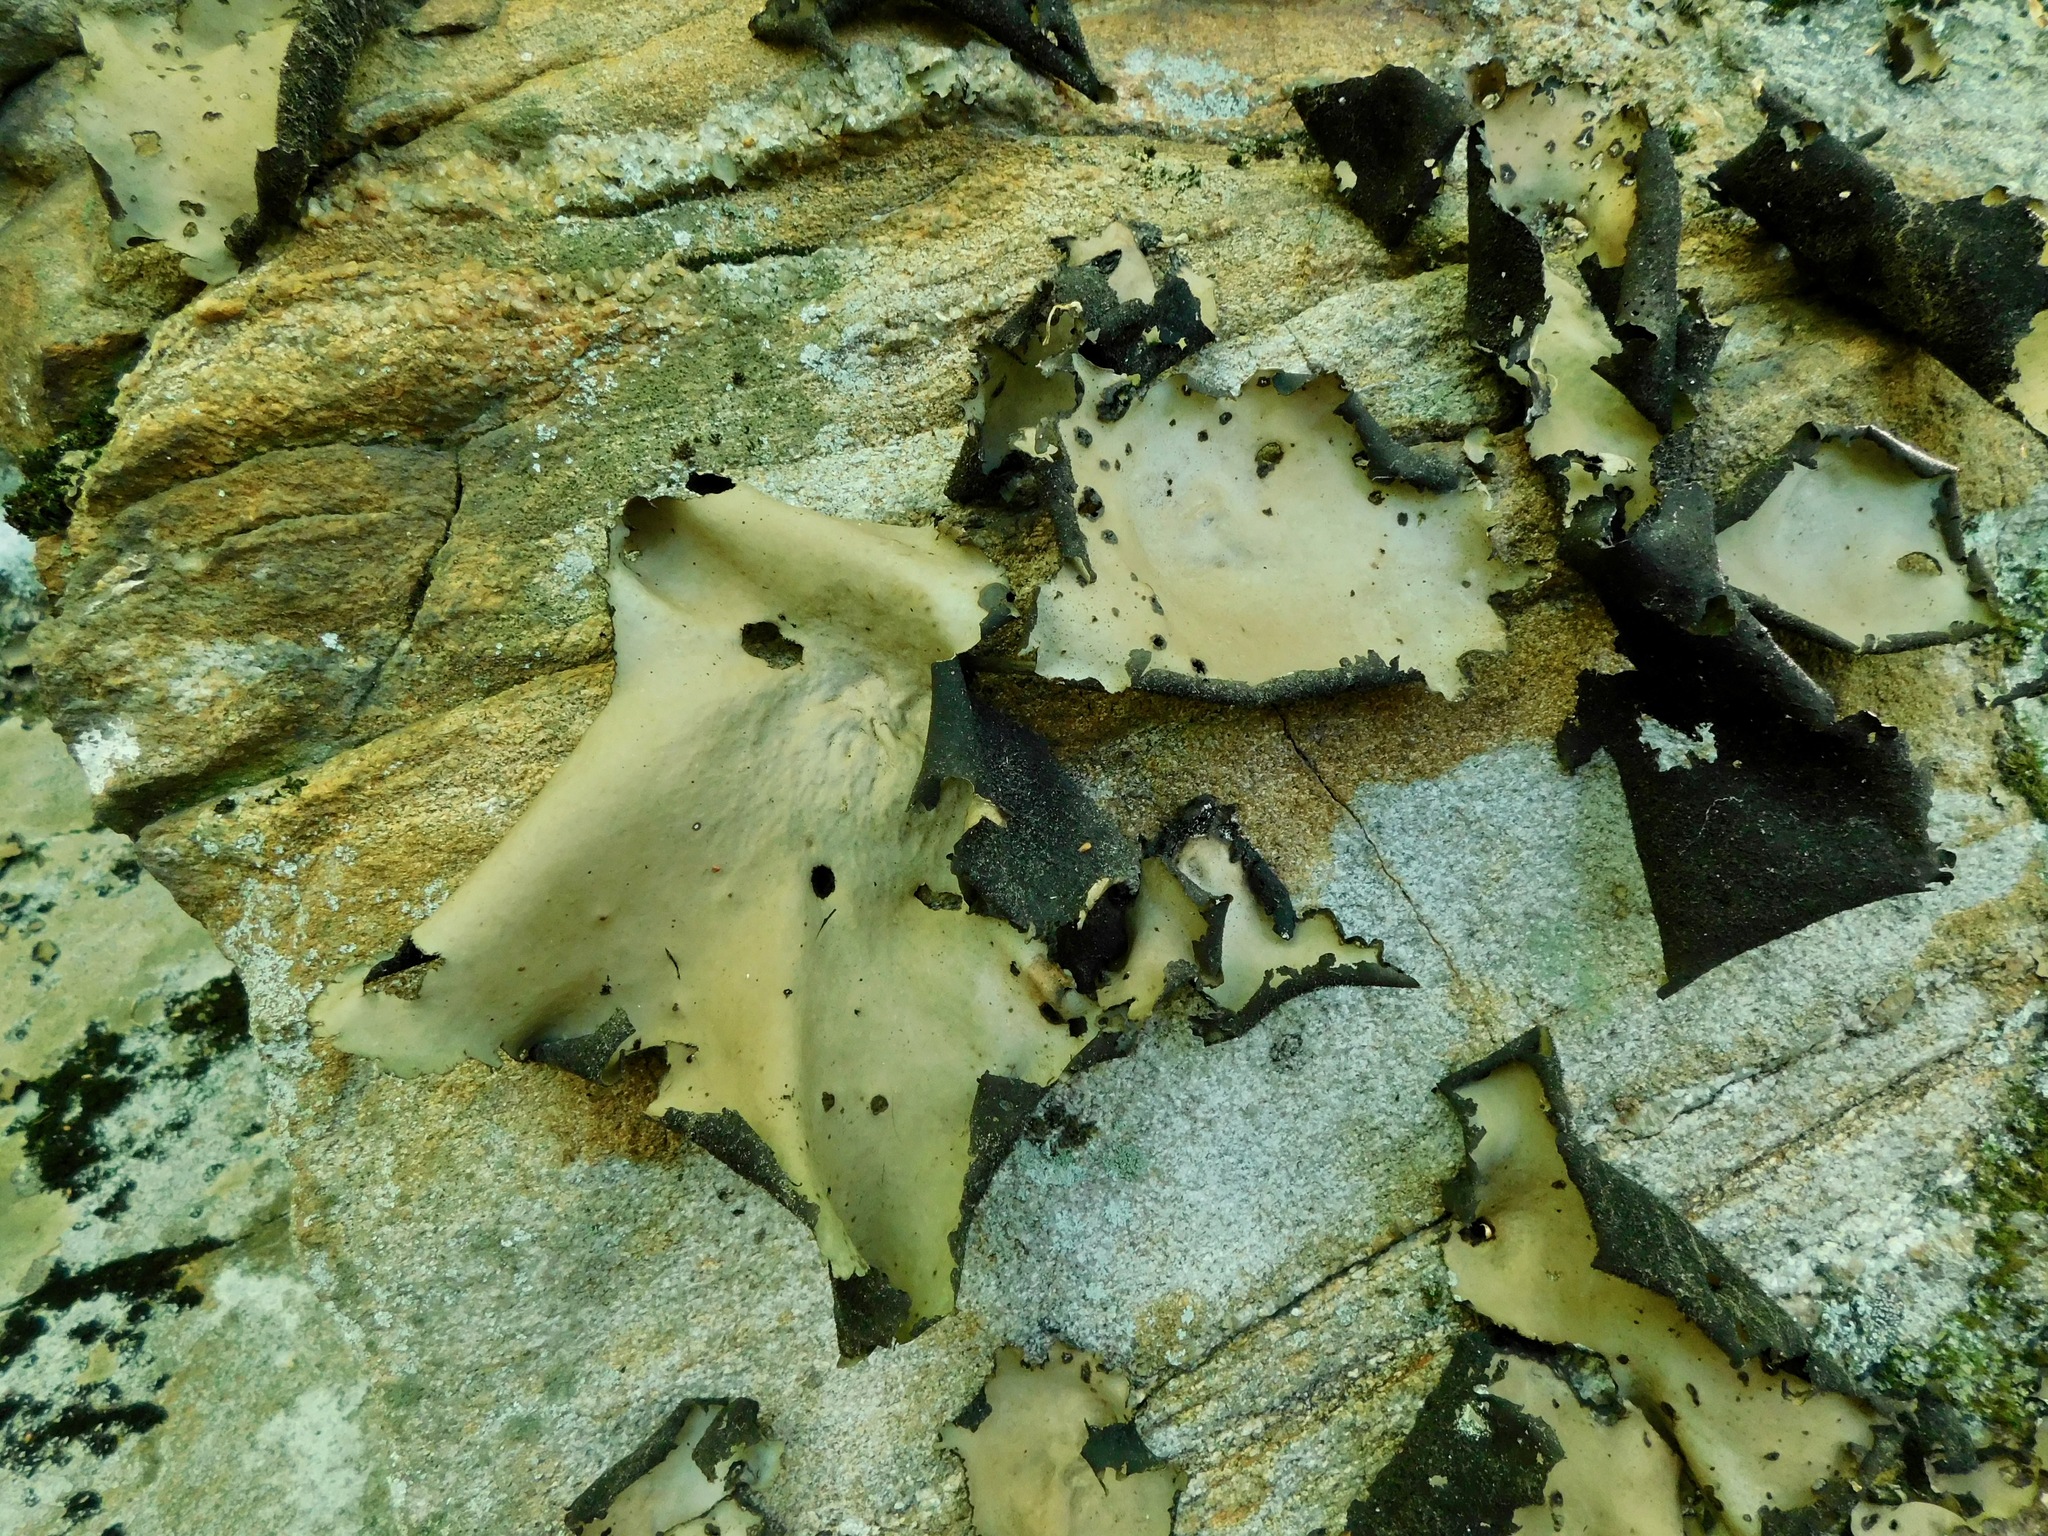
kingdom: Fungi
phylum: Ascomycota
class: Lecanoromycetes
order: Umbilicariales
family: Umbilicariaceae
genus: Umbilicaria
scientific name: Umbilicaria mammulata
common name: Smooth rock tripe
